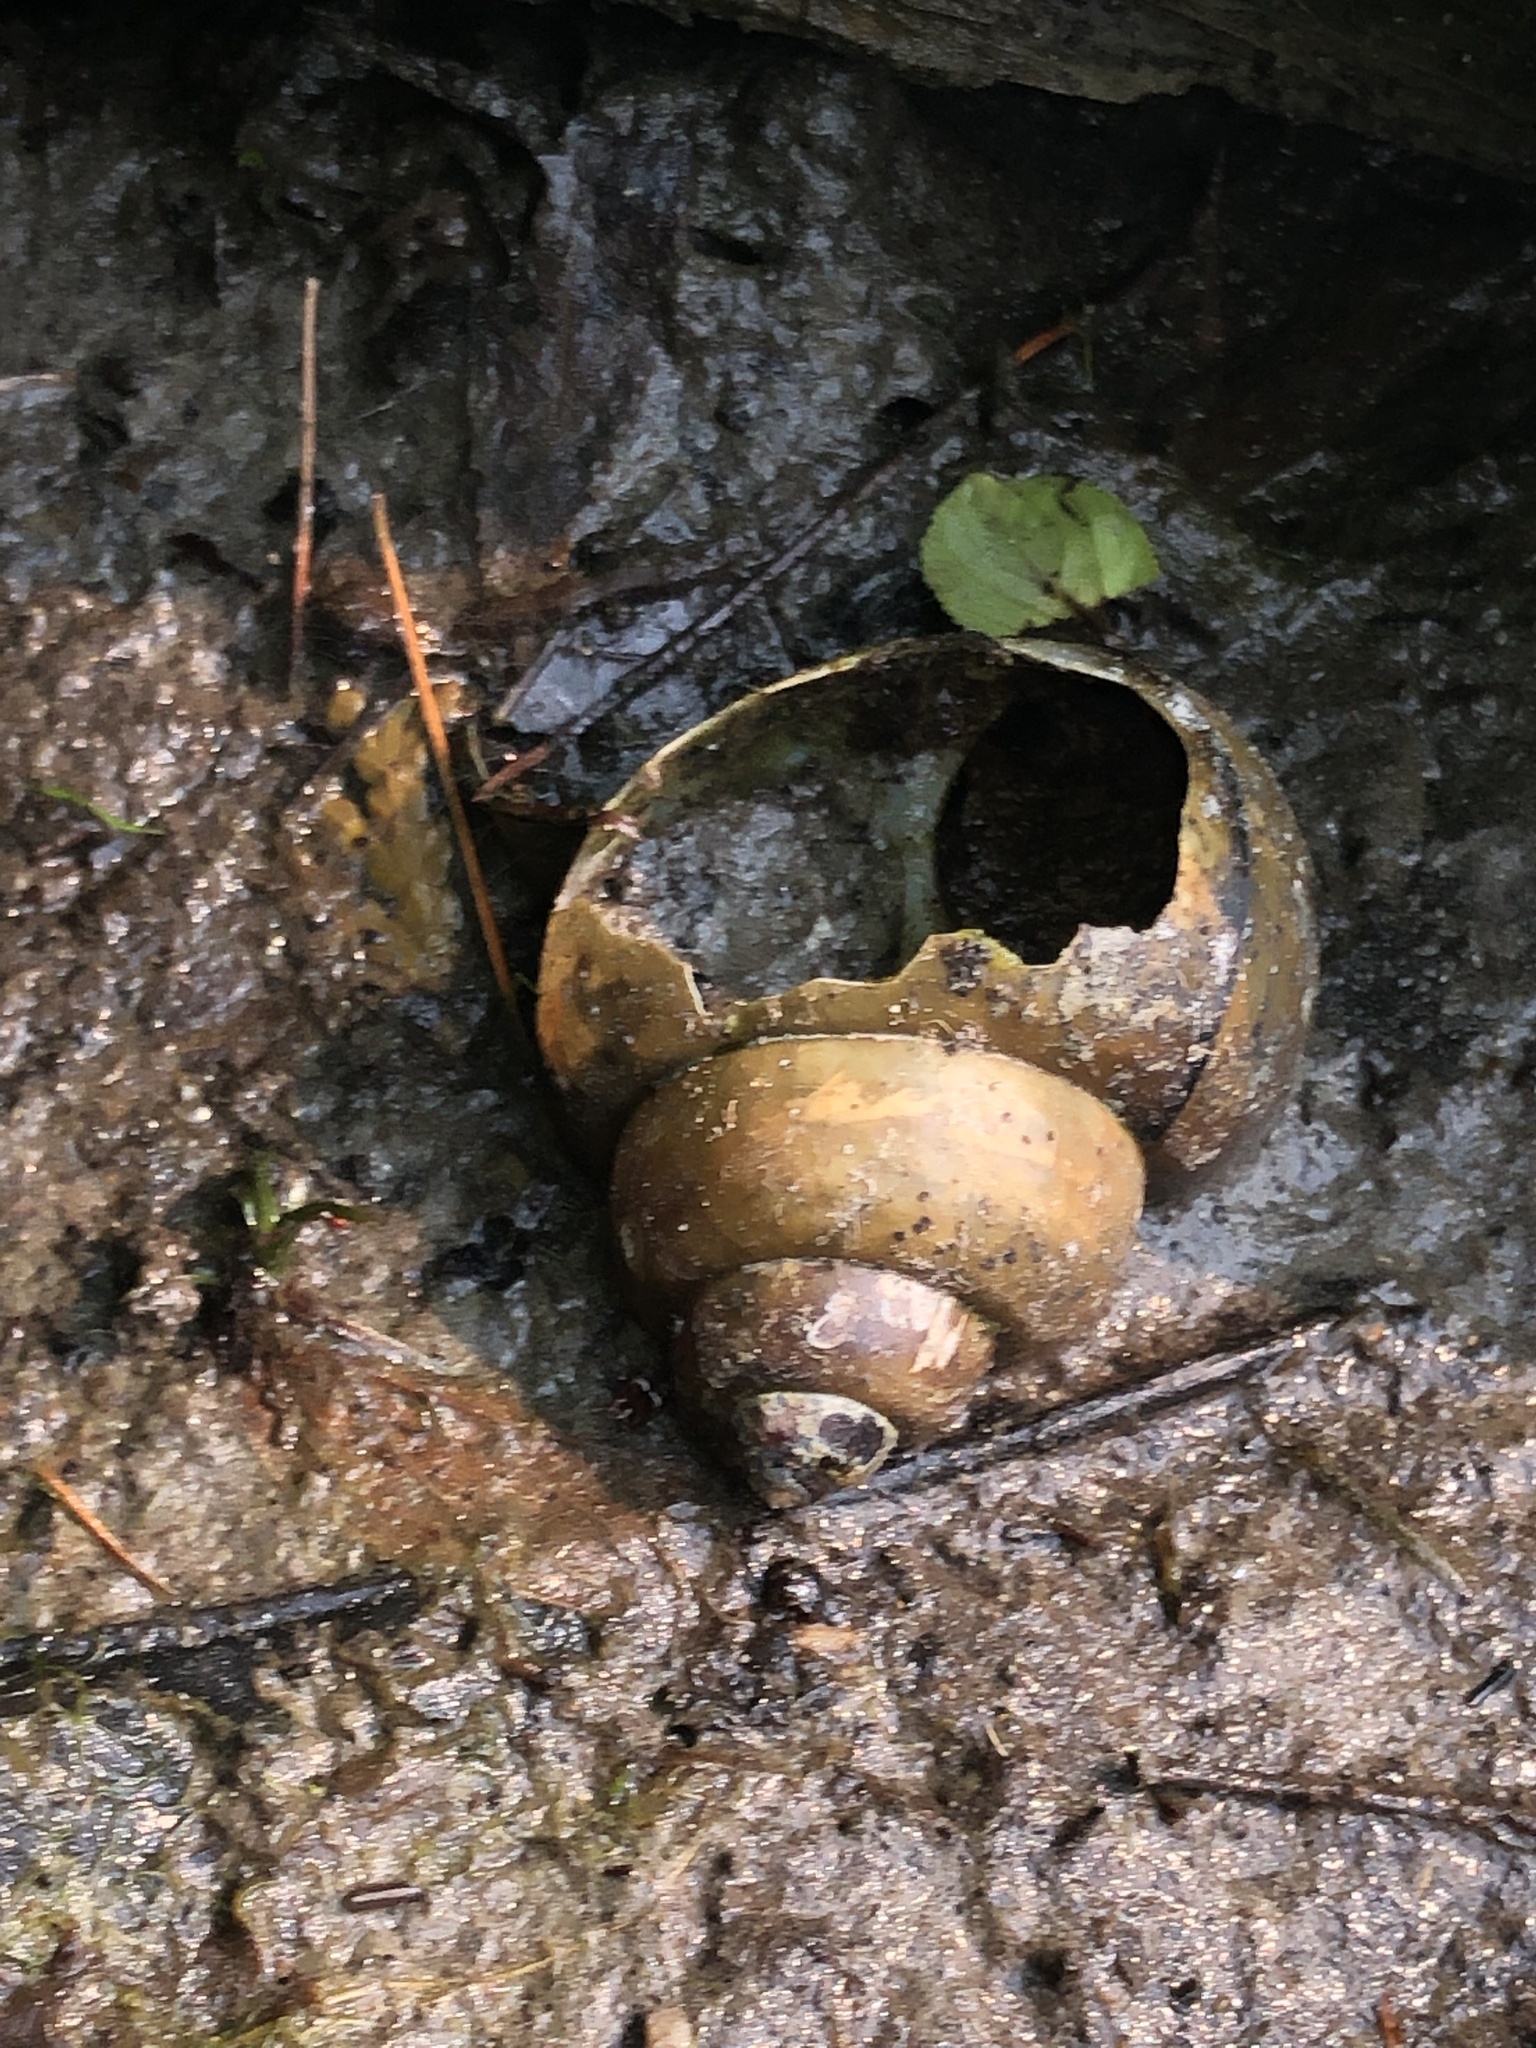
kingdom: Animalia
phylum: Mollusca
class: Gastropoda
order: Architaenioglossa
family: Viviparidae
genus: Cipangopaludina
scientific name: Cipangopaludina chinensis
